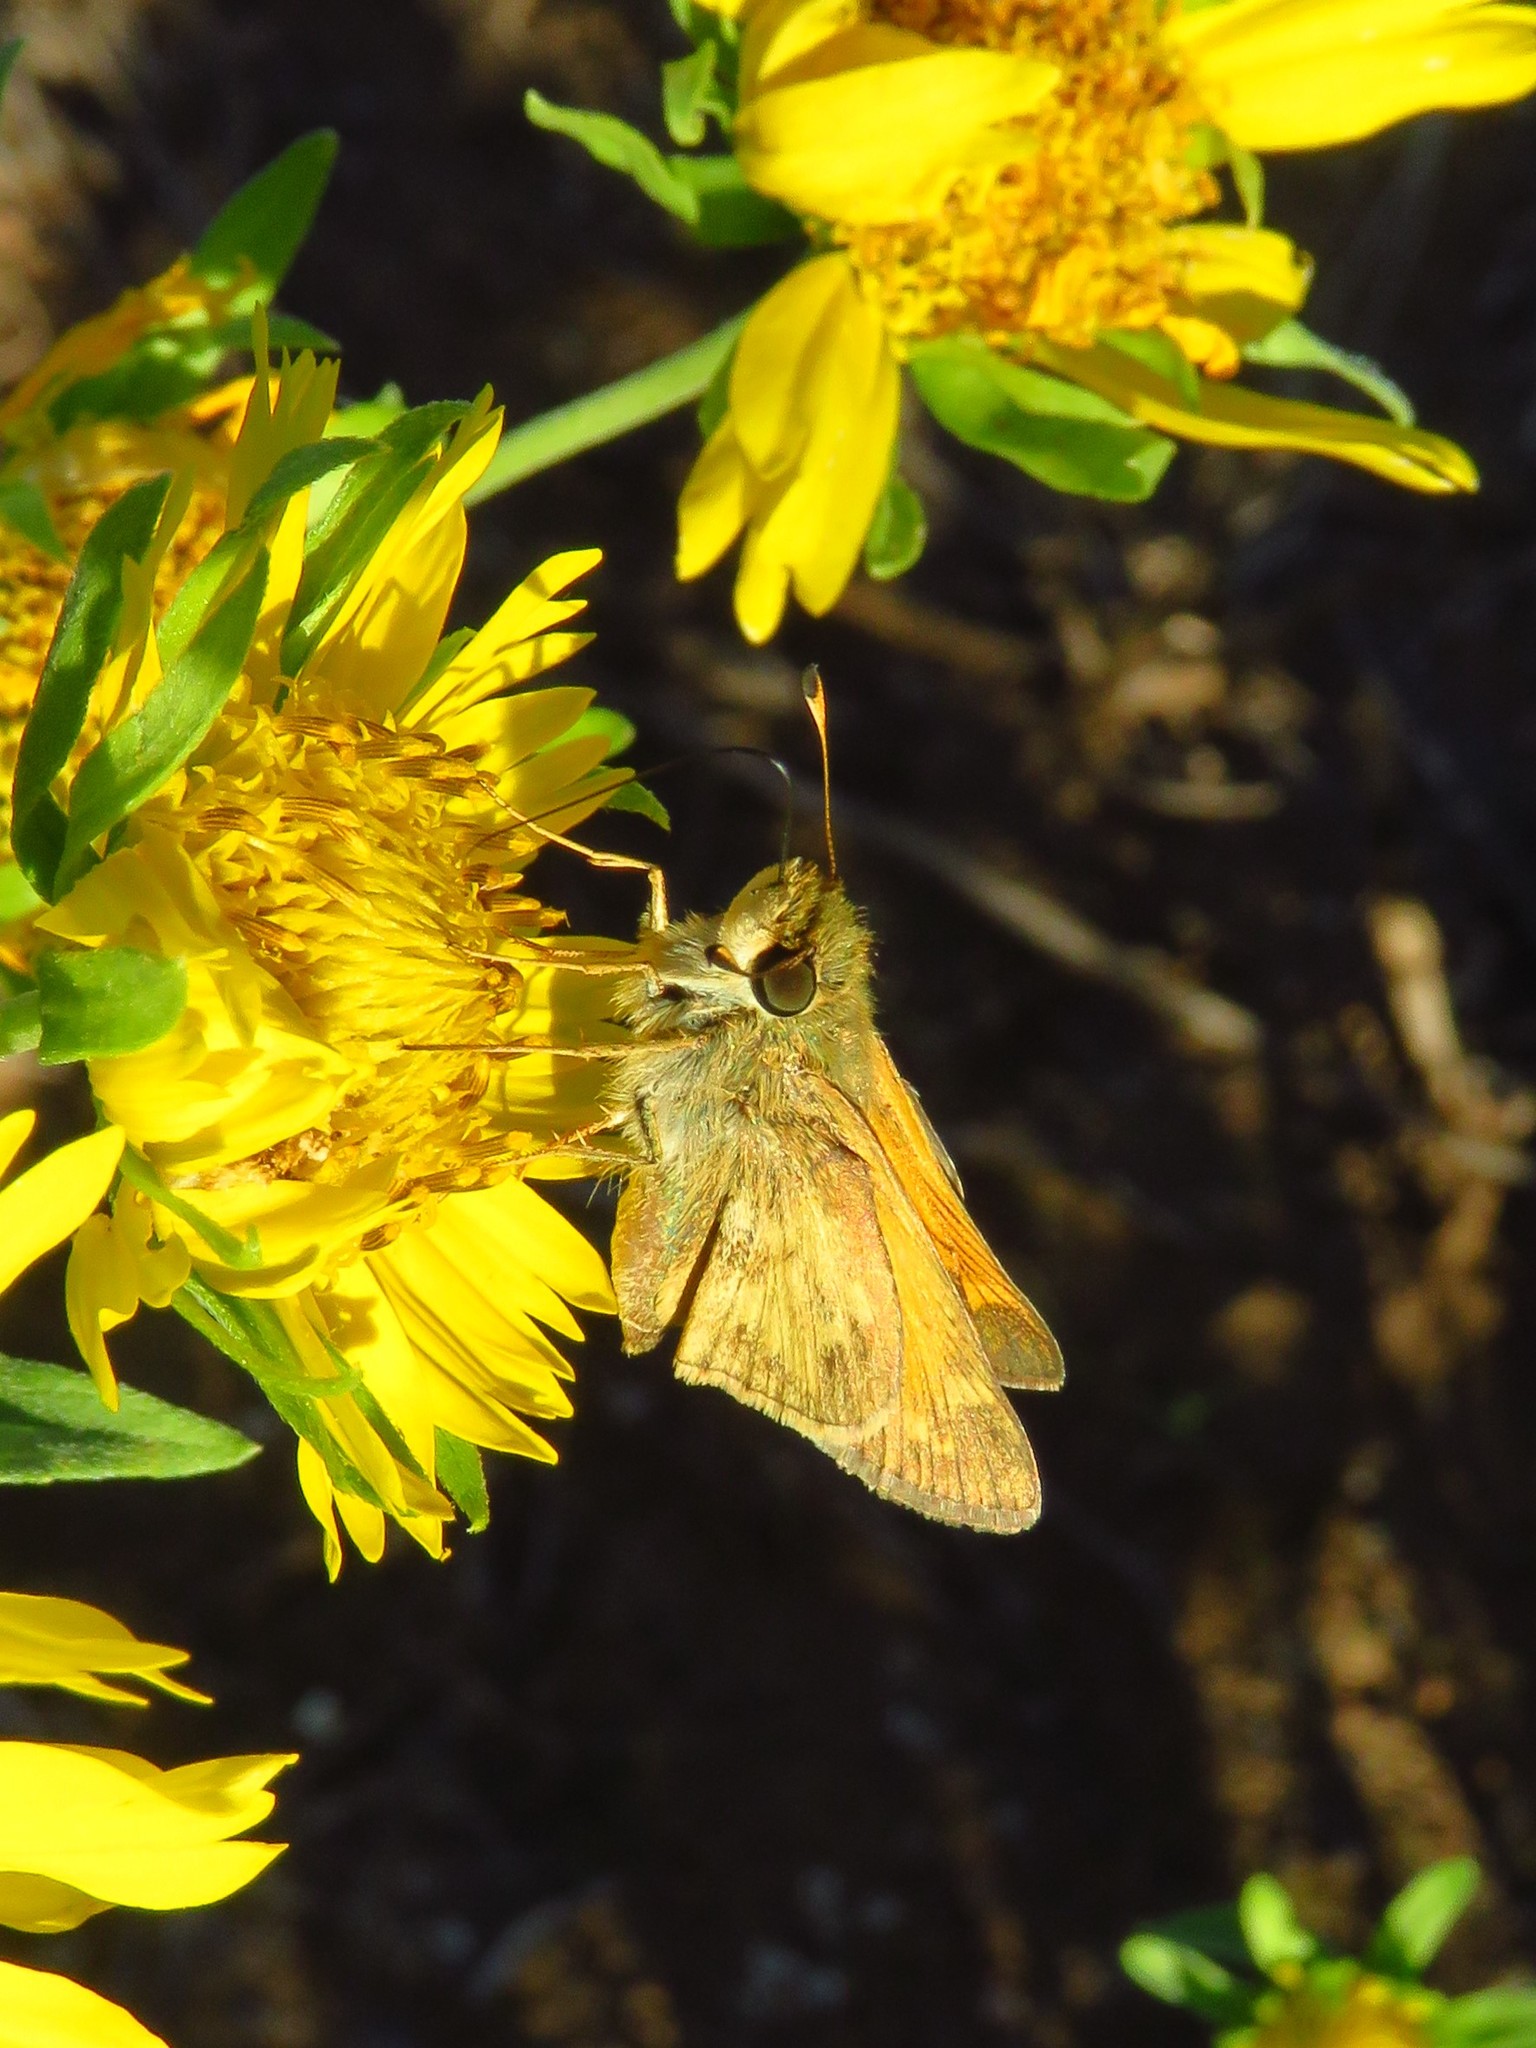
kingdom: Animalia
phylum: Arthropoda
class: Insecta
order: Lepidoptera
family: Hesperiidae
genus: Atalopedes
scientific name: Atalopedes
